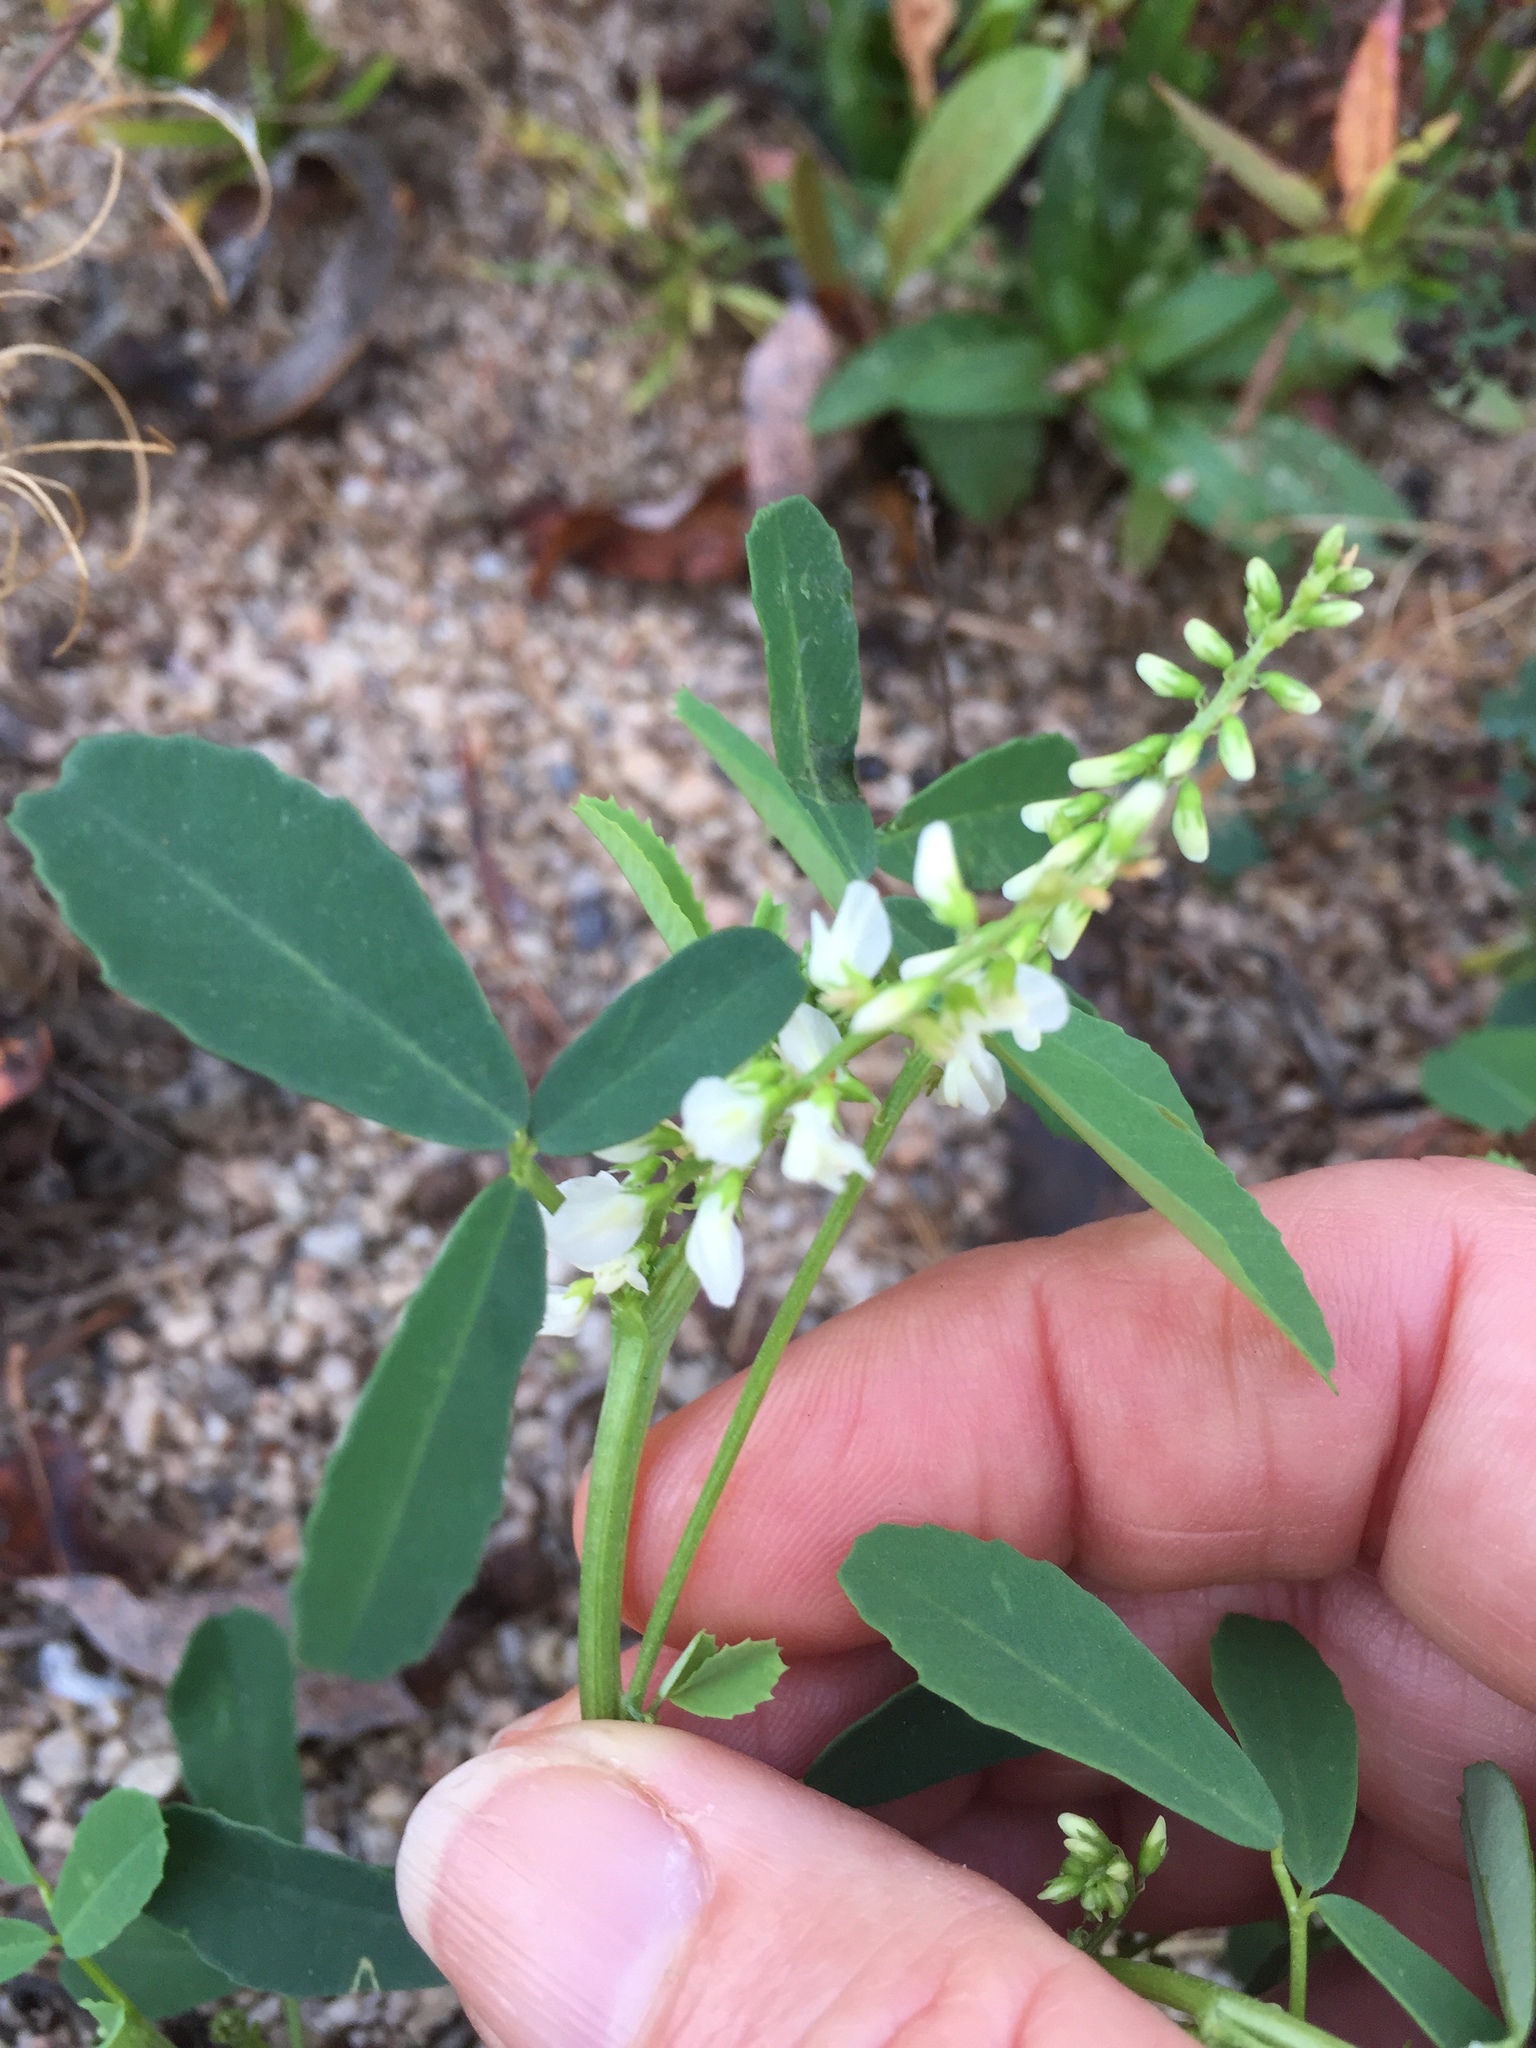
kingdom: Plantae
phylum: Tracheophyta
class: Magnoliopsida
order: Fabales
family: Fabaceae
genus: Melilotus
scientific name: Melilotus albus
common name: White melilot
